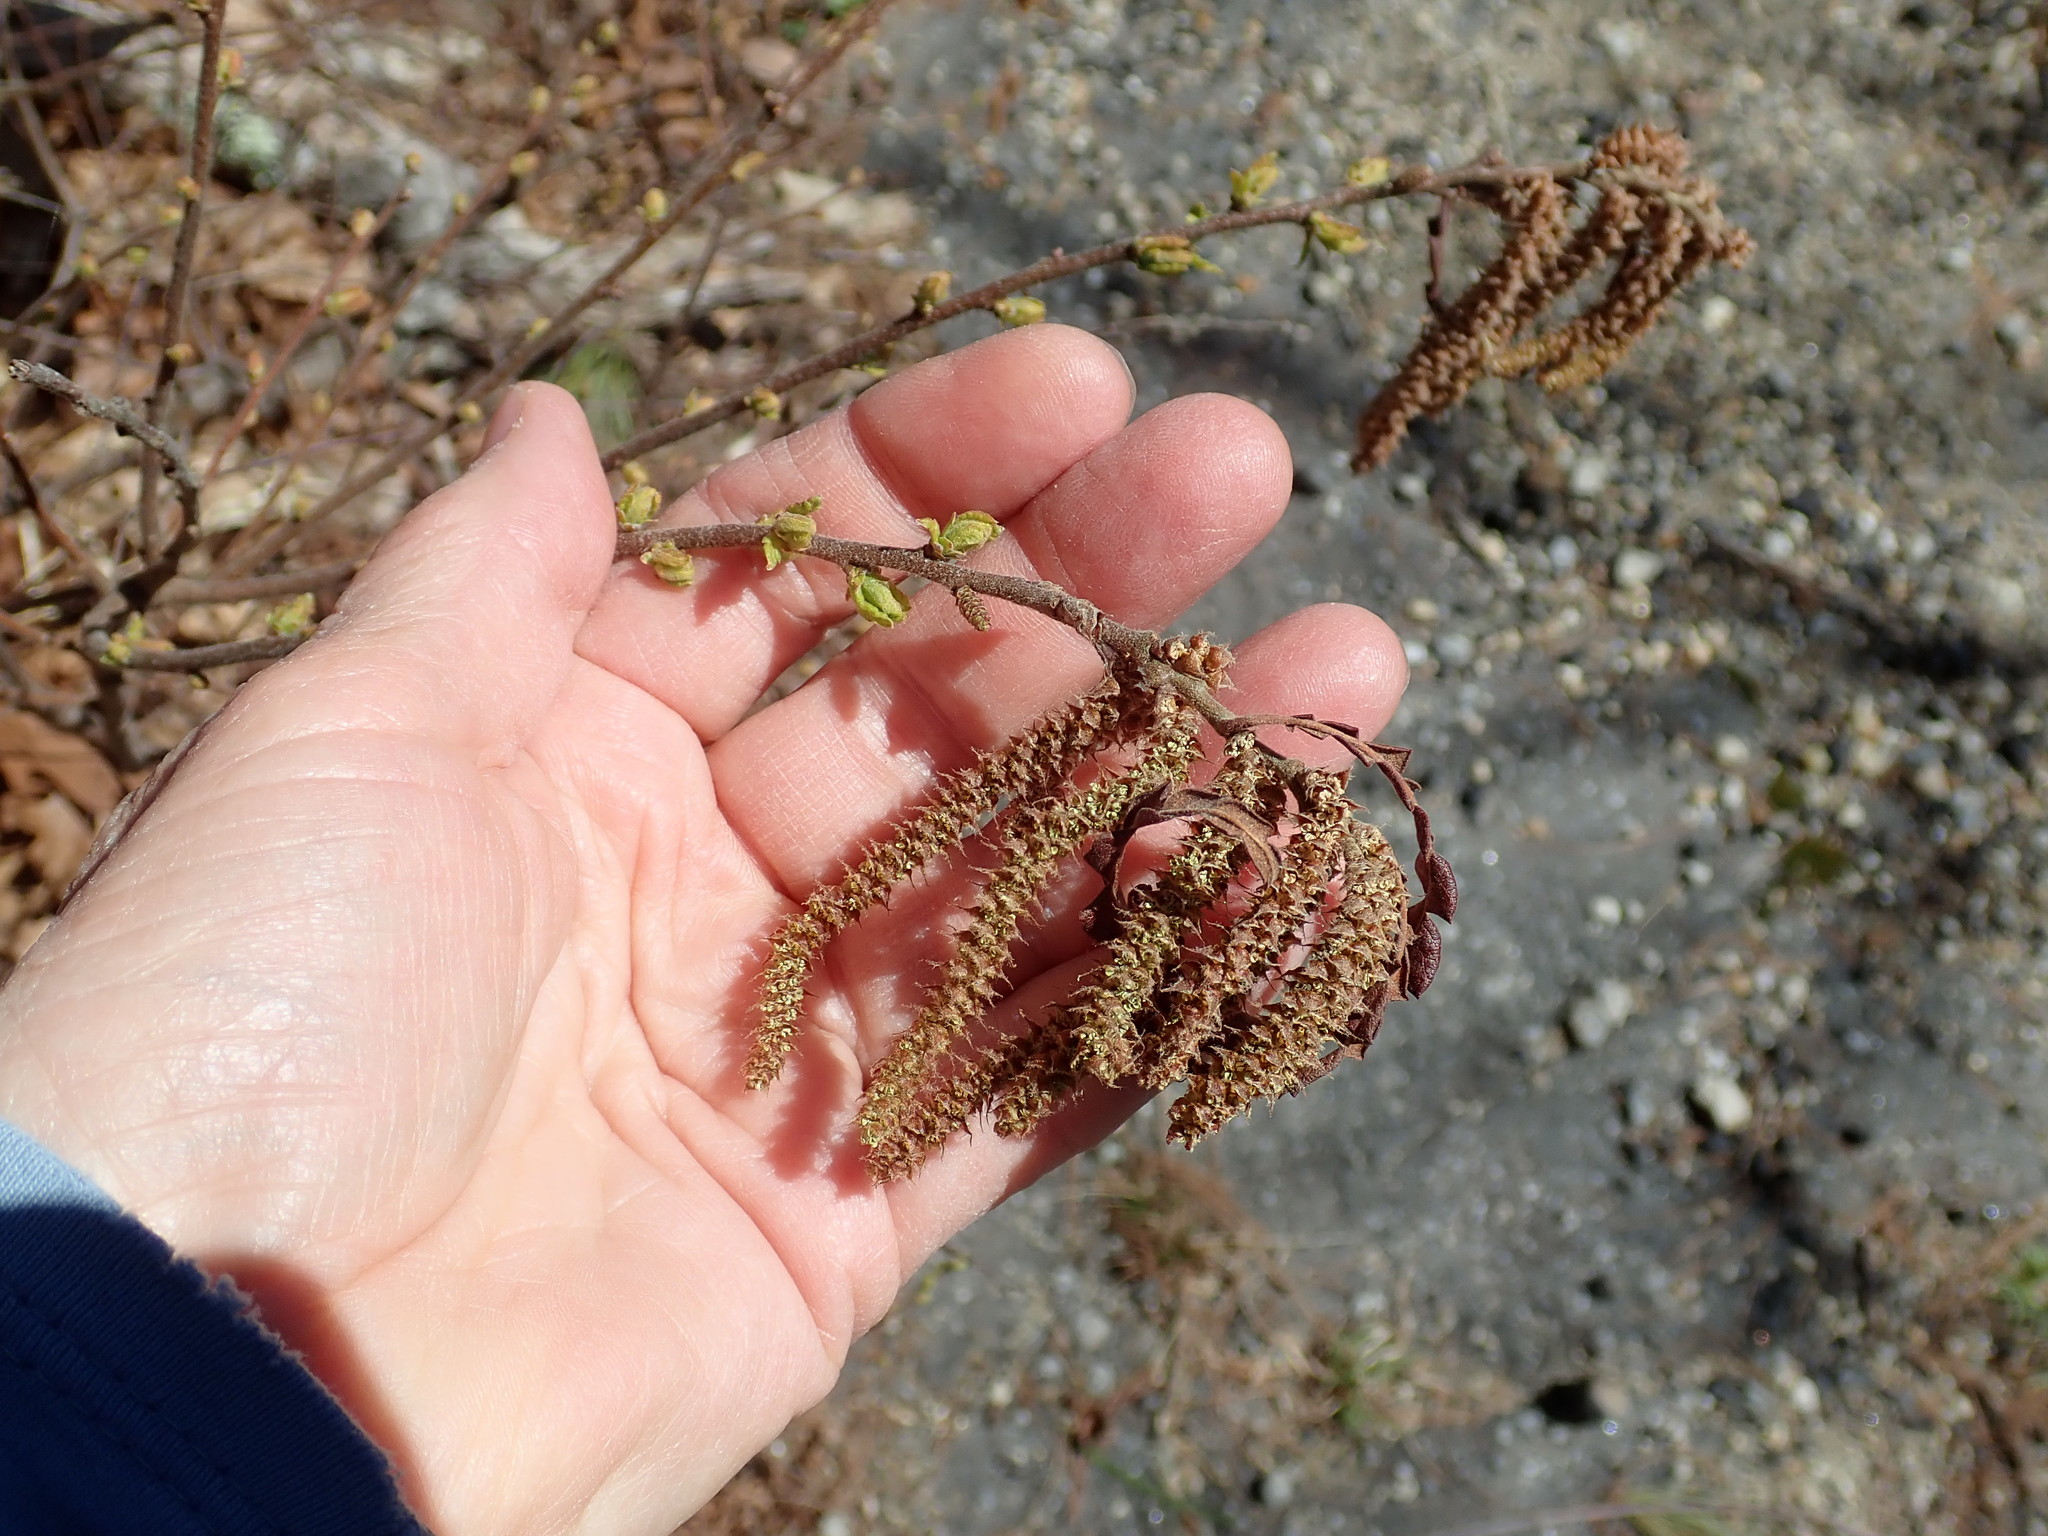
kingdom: Plantae
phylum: Tracheophyta
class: Magnoliopsida
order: Fagales
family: Myricaceae
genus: Comptonia
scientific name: Comptonia peregrina
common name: Sweet-fern
